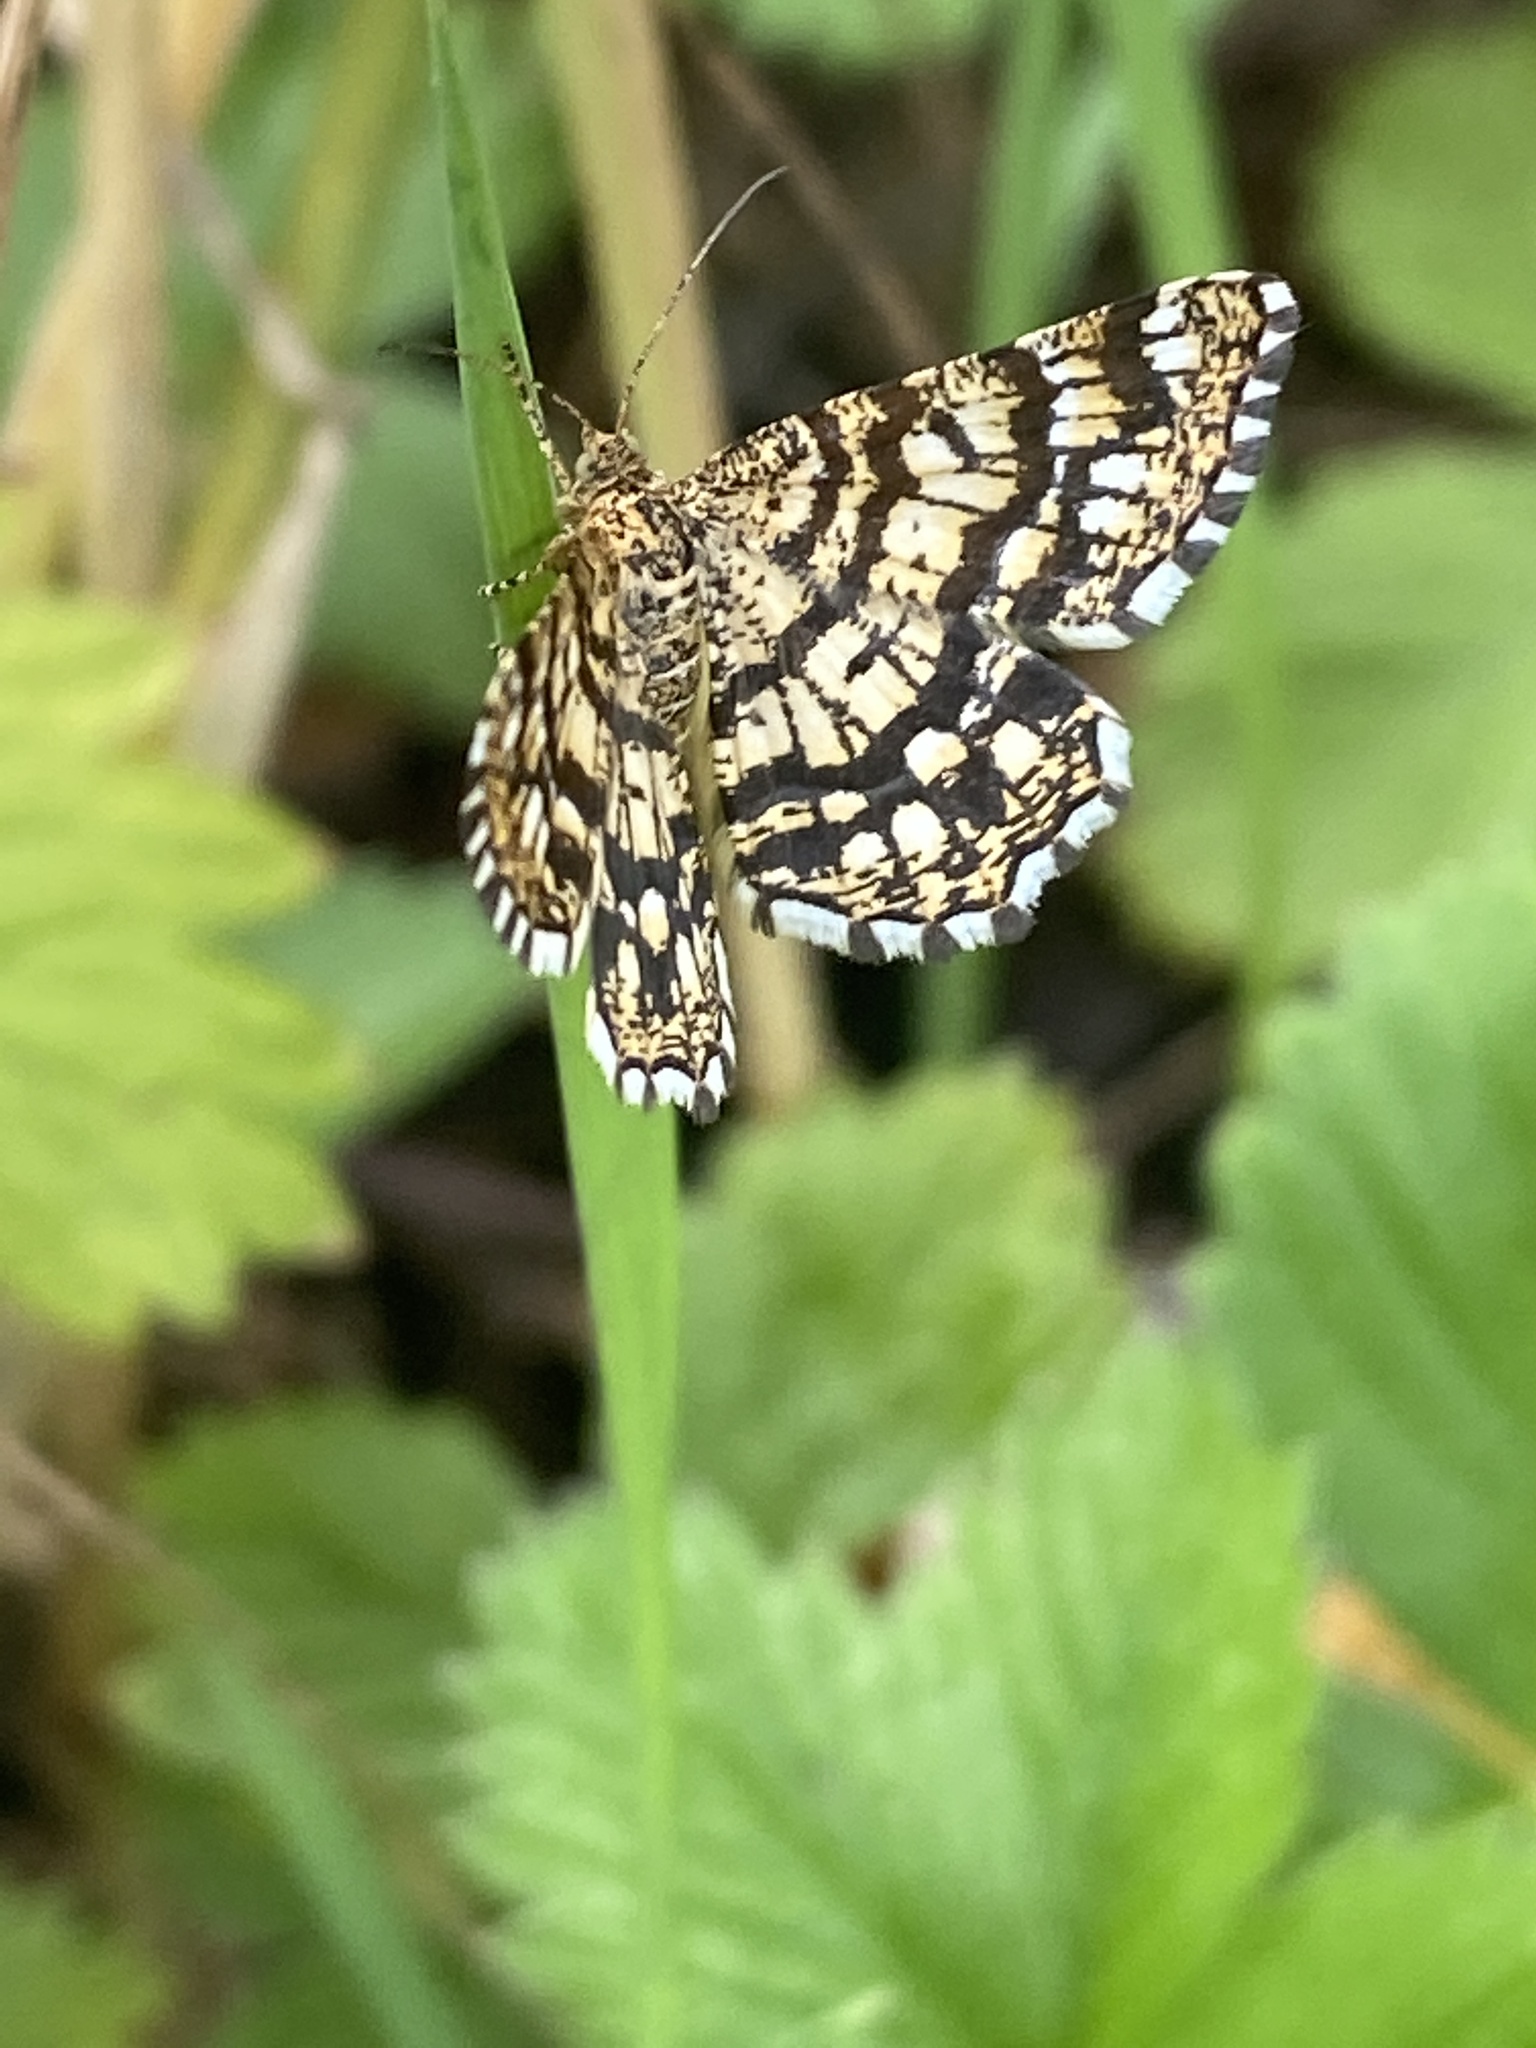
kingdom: Animalia
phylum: Arthropoda
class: Insecta
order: Lepidoptera
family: Geometridae
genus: Chiasmia
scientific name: Chiasmia clathrata
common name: Latticed heath
